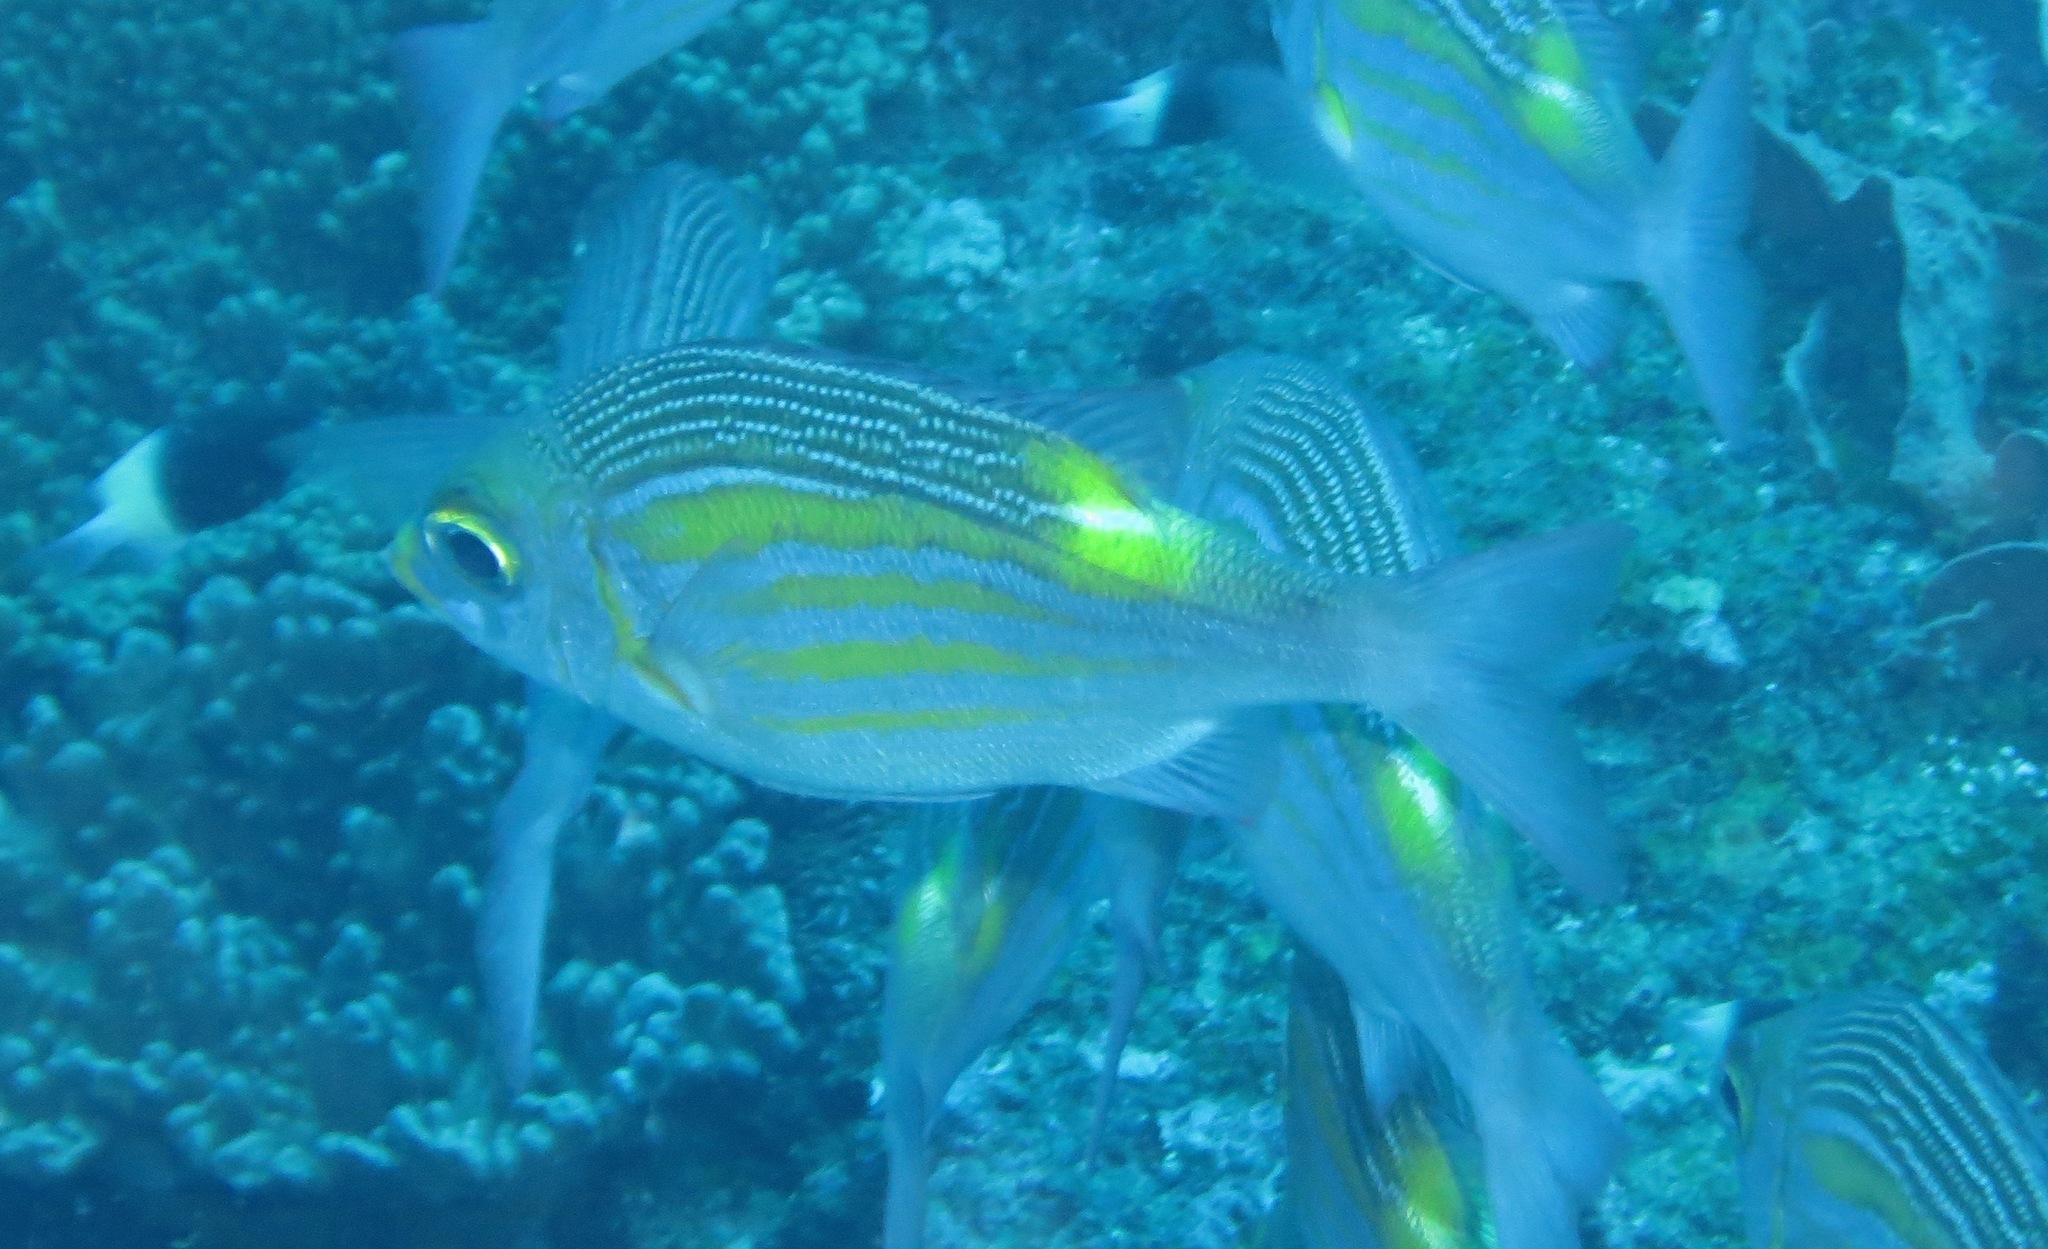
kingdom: Animalia
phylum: Chordata
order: Perciformes
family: Lethrinidae
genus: Gnathodentex
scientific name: Gnathodentex aureolineatus
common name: Gold-lined sea bream
